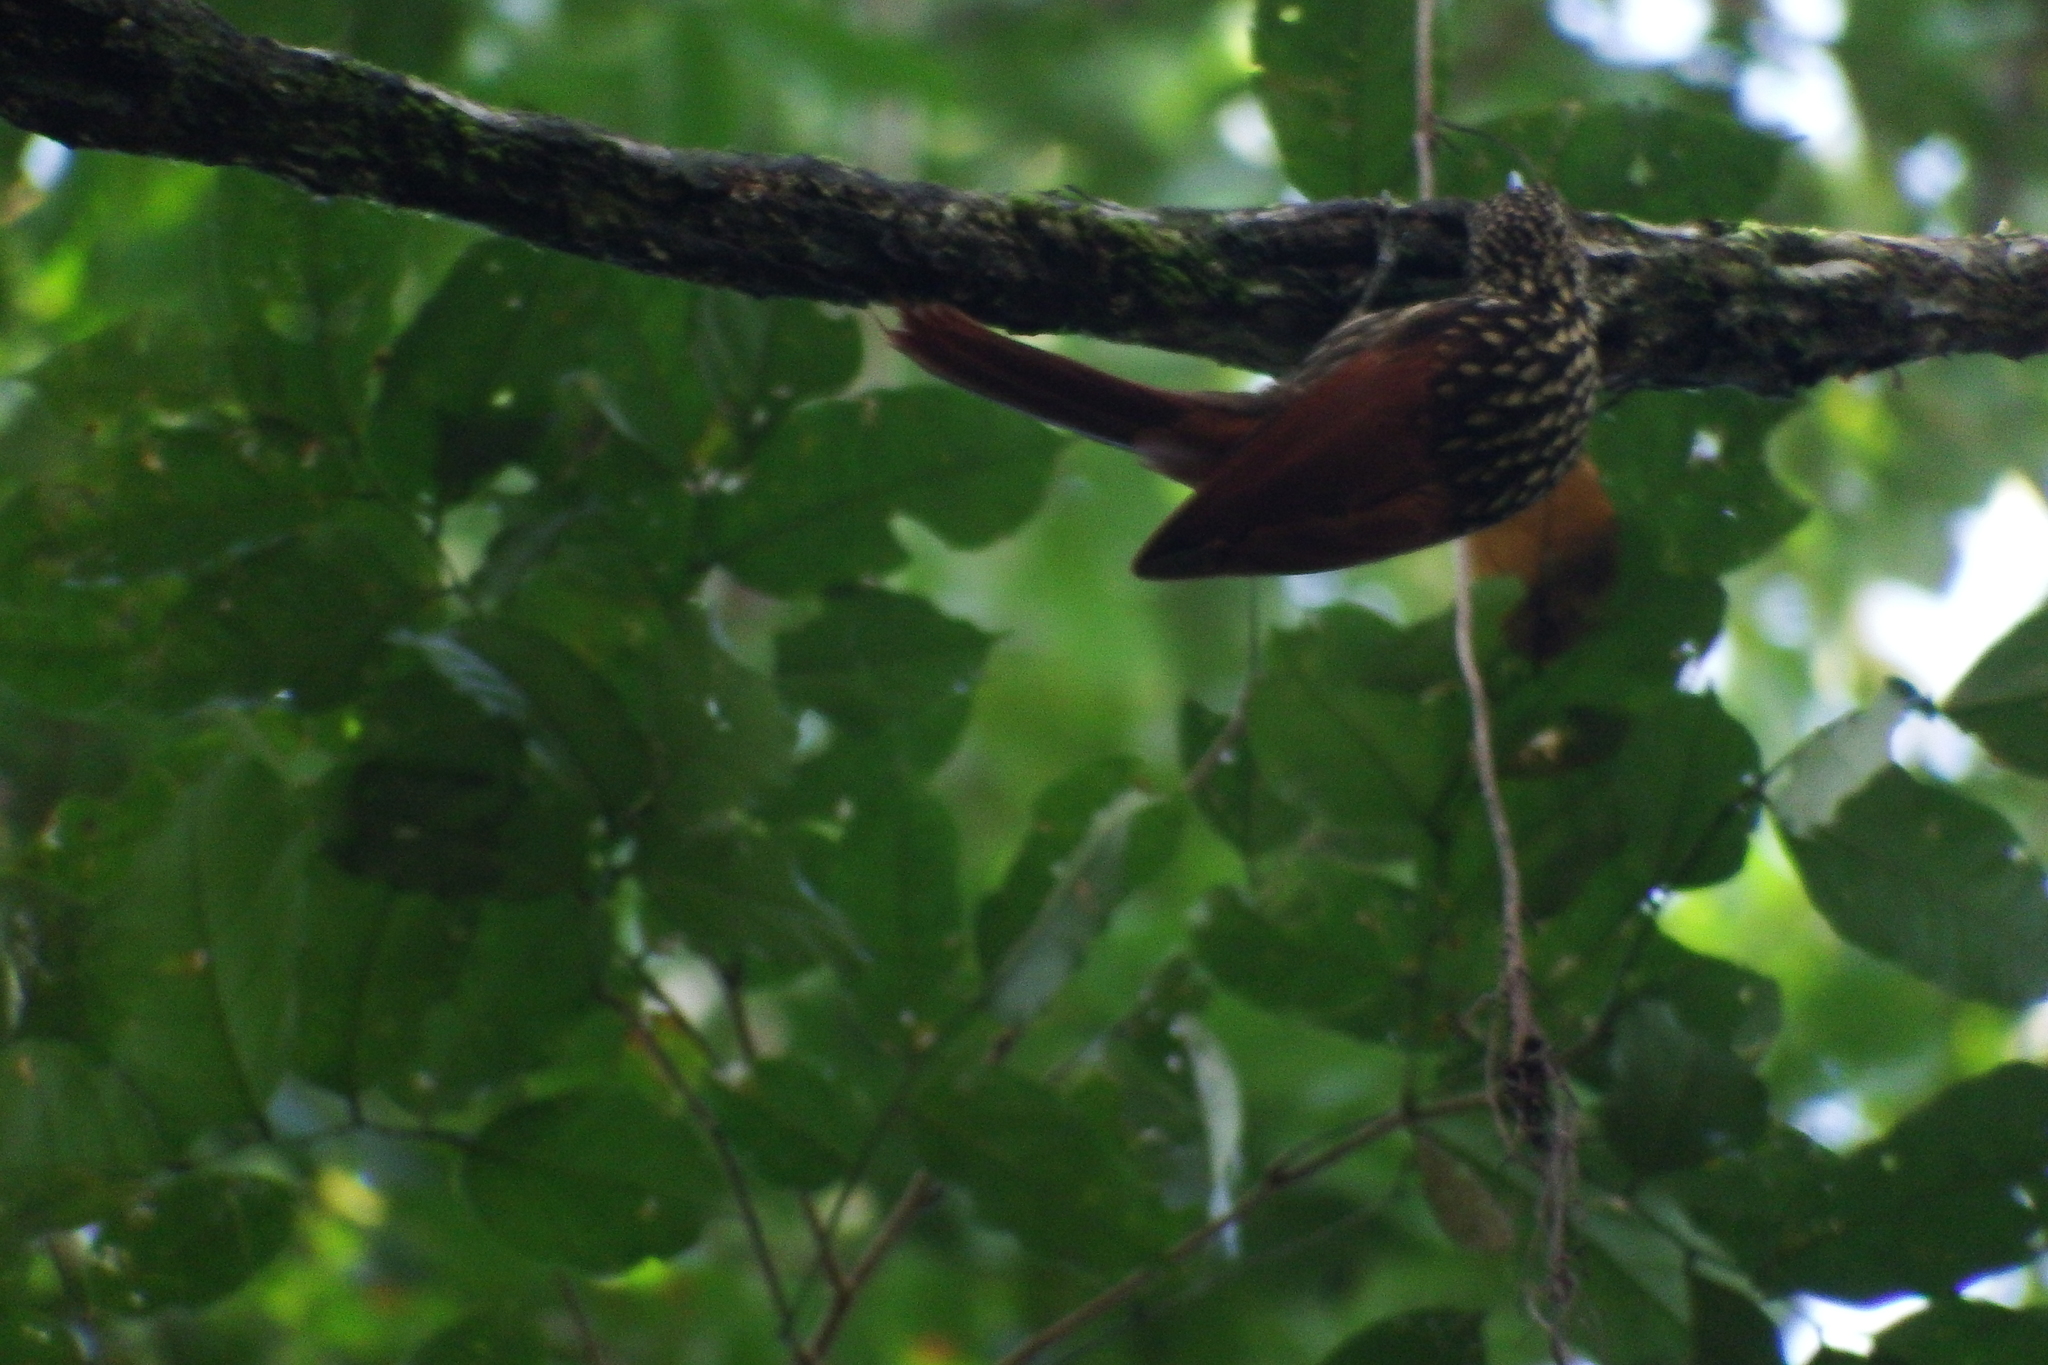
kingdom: Animalia
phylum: Chordata
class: Aves
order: Passeriformes
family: Furnariidae
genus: Xiphorhynchus
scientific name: Xiphorhynchus lachrymosus
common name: Black-striped woodcreeper
